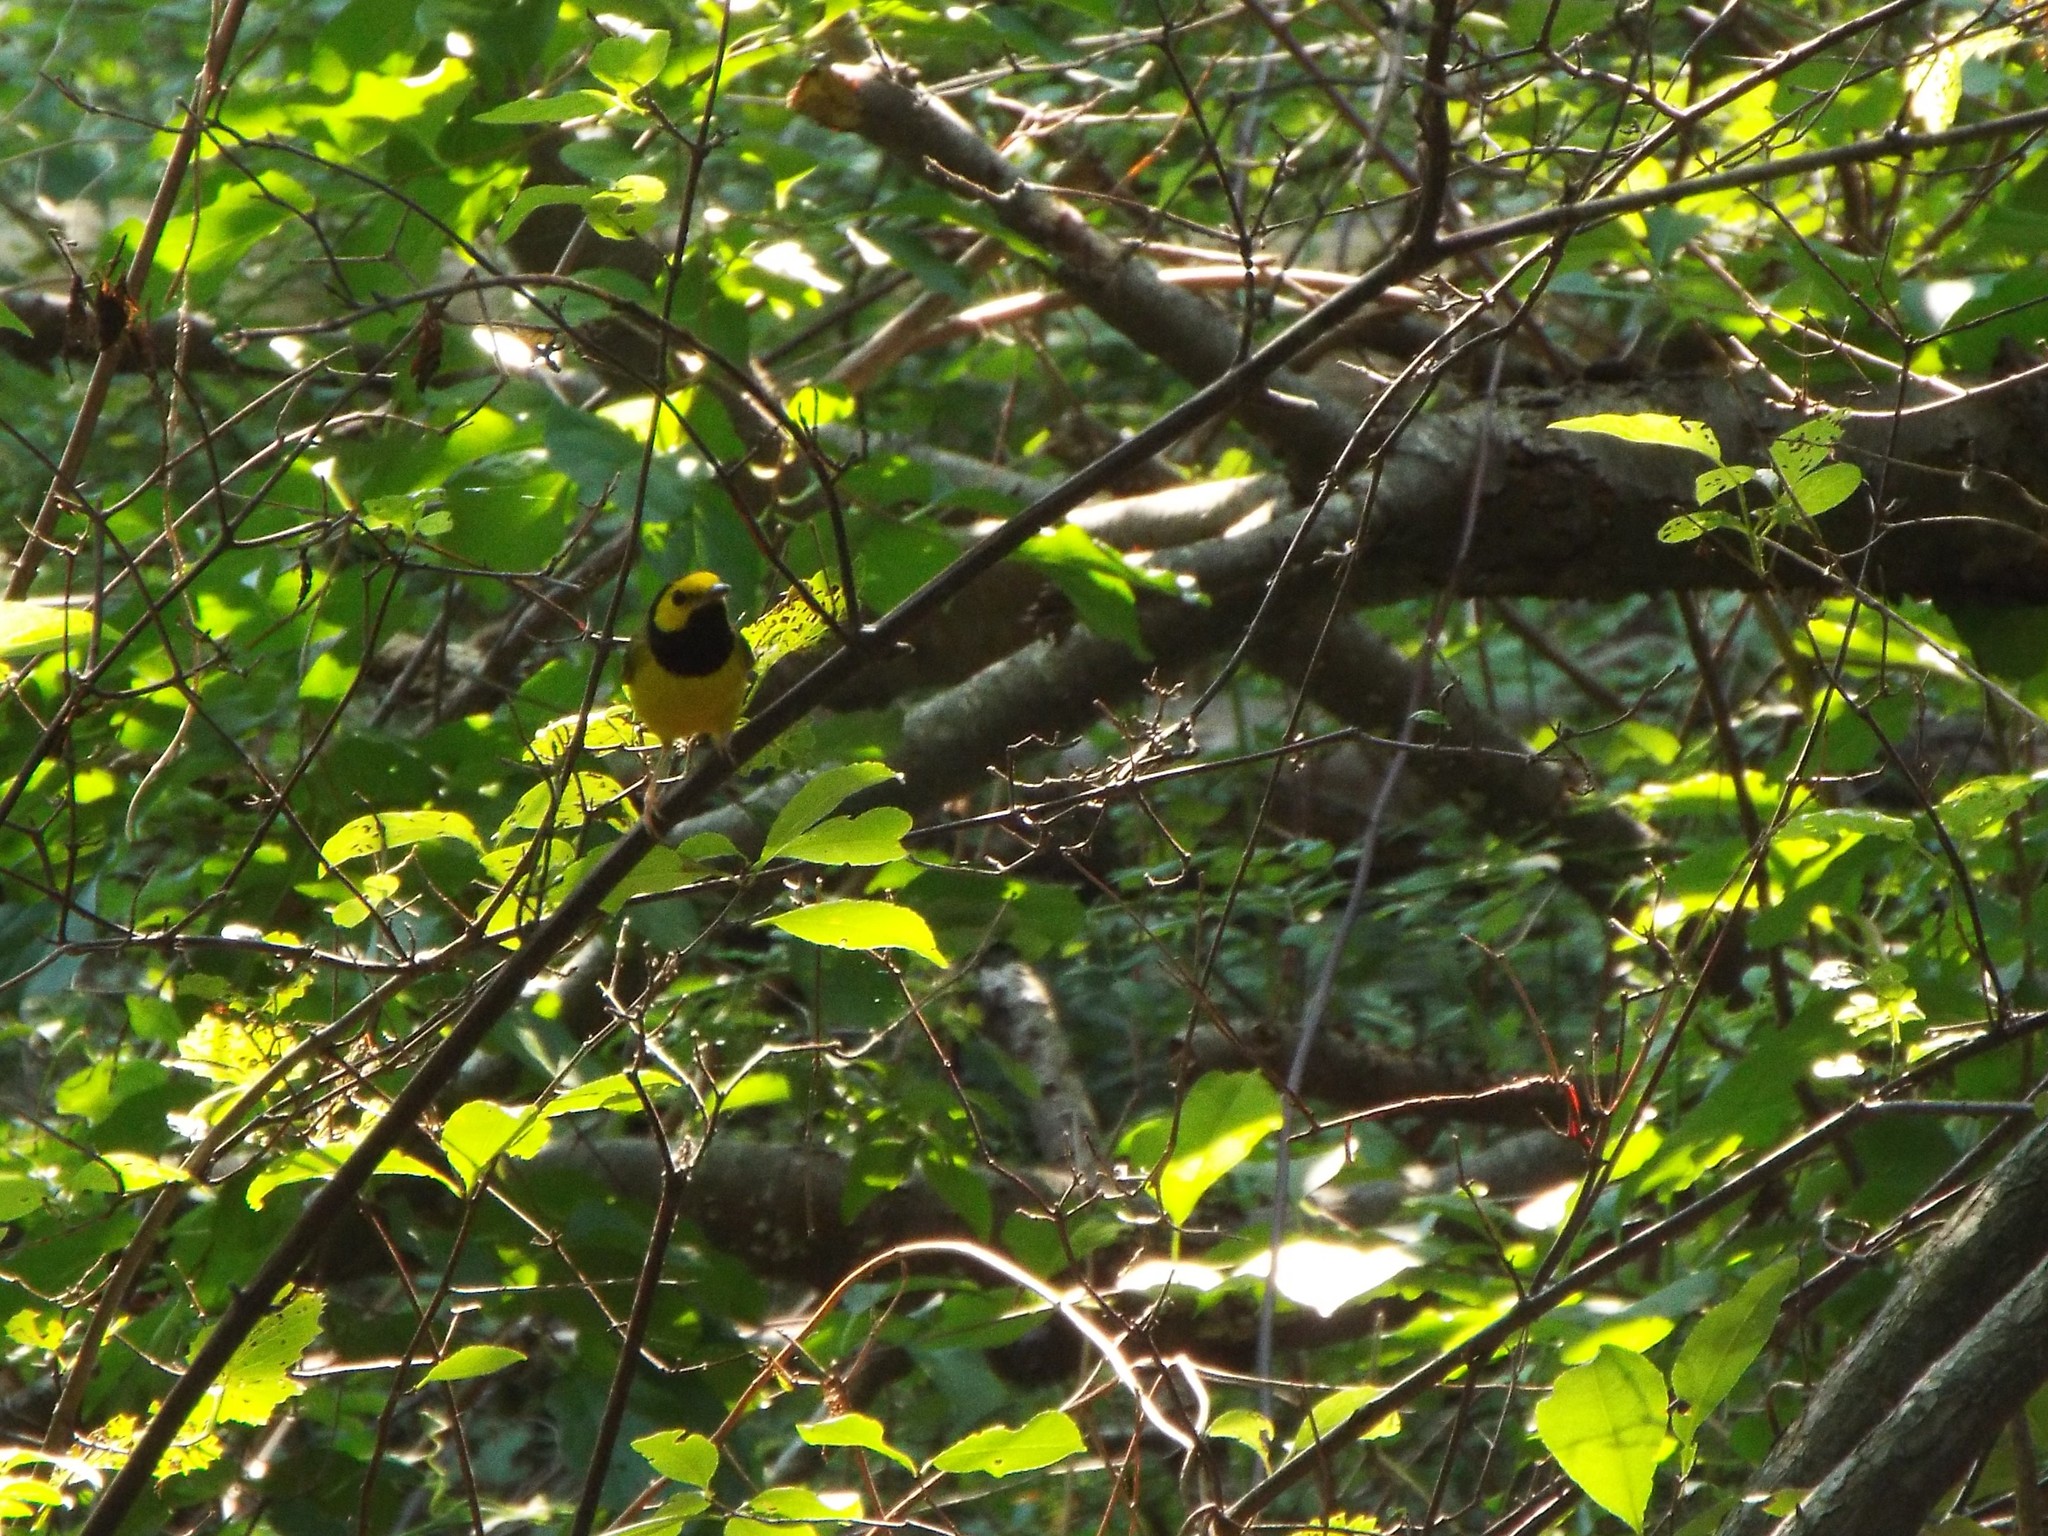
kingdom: Animalia
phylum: Chordata
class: Aves
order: Passeriformes
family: Parulidae
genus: Setophaga
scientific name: Setophaga citrina
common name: Hooded warbler
